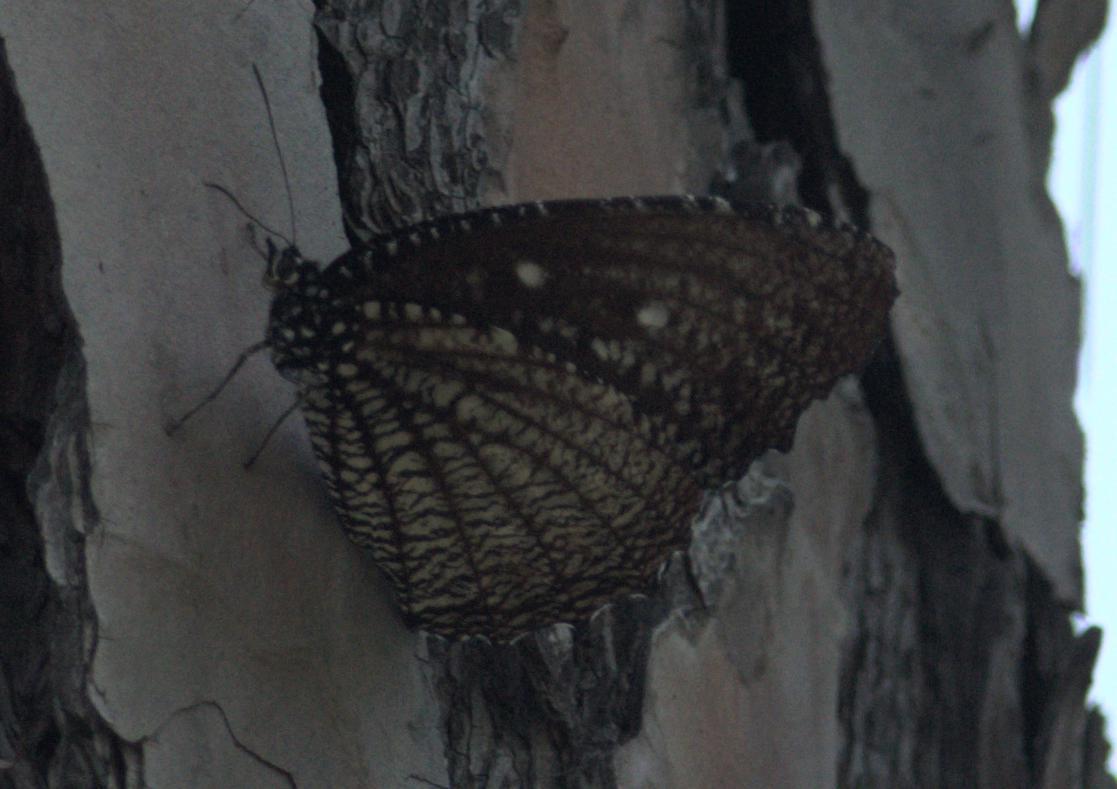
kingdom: Animalia
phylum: Arthropoda
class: Insecta
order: Lepidoptera
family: Nymphalidae
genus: Elymnias
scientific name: Elymnias malelas
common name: Spotted palmfly
